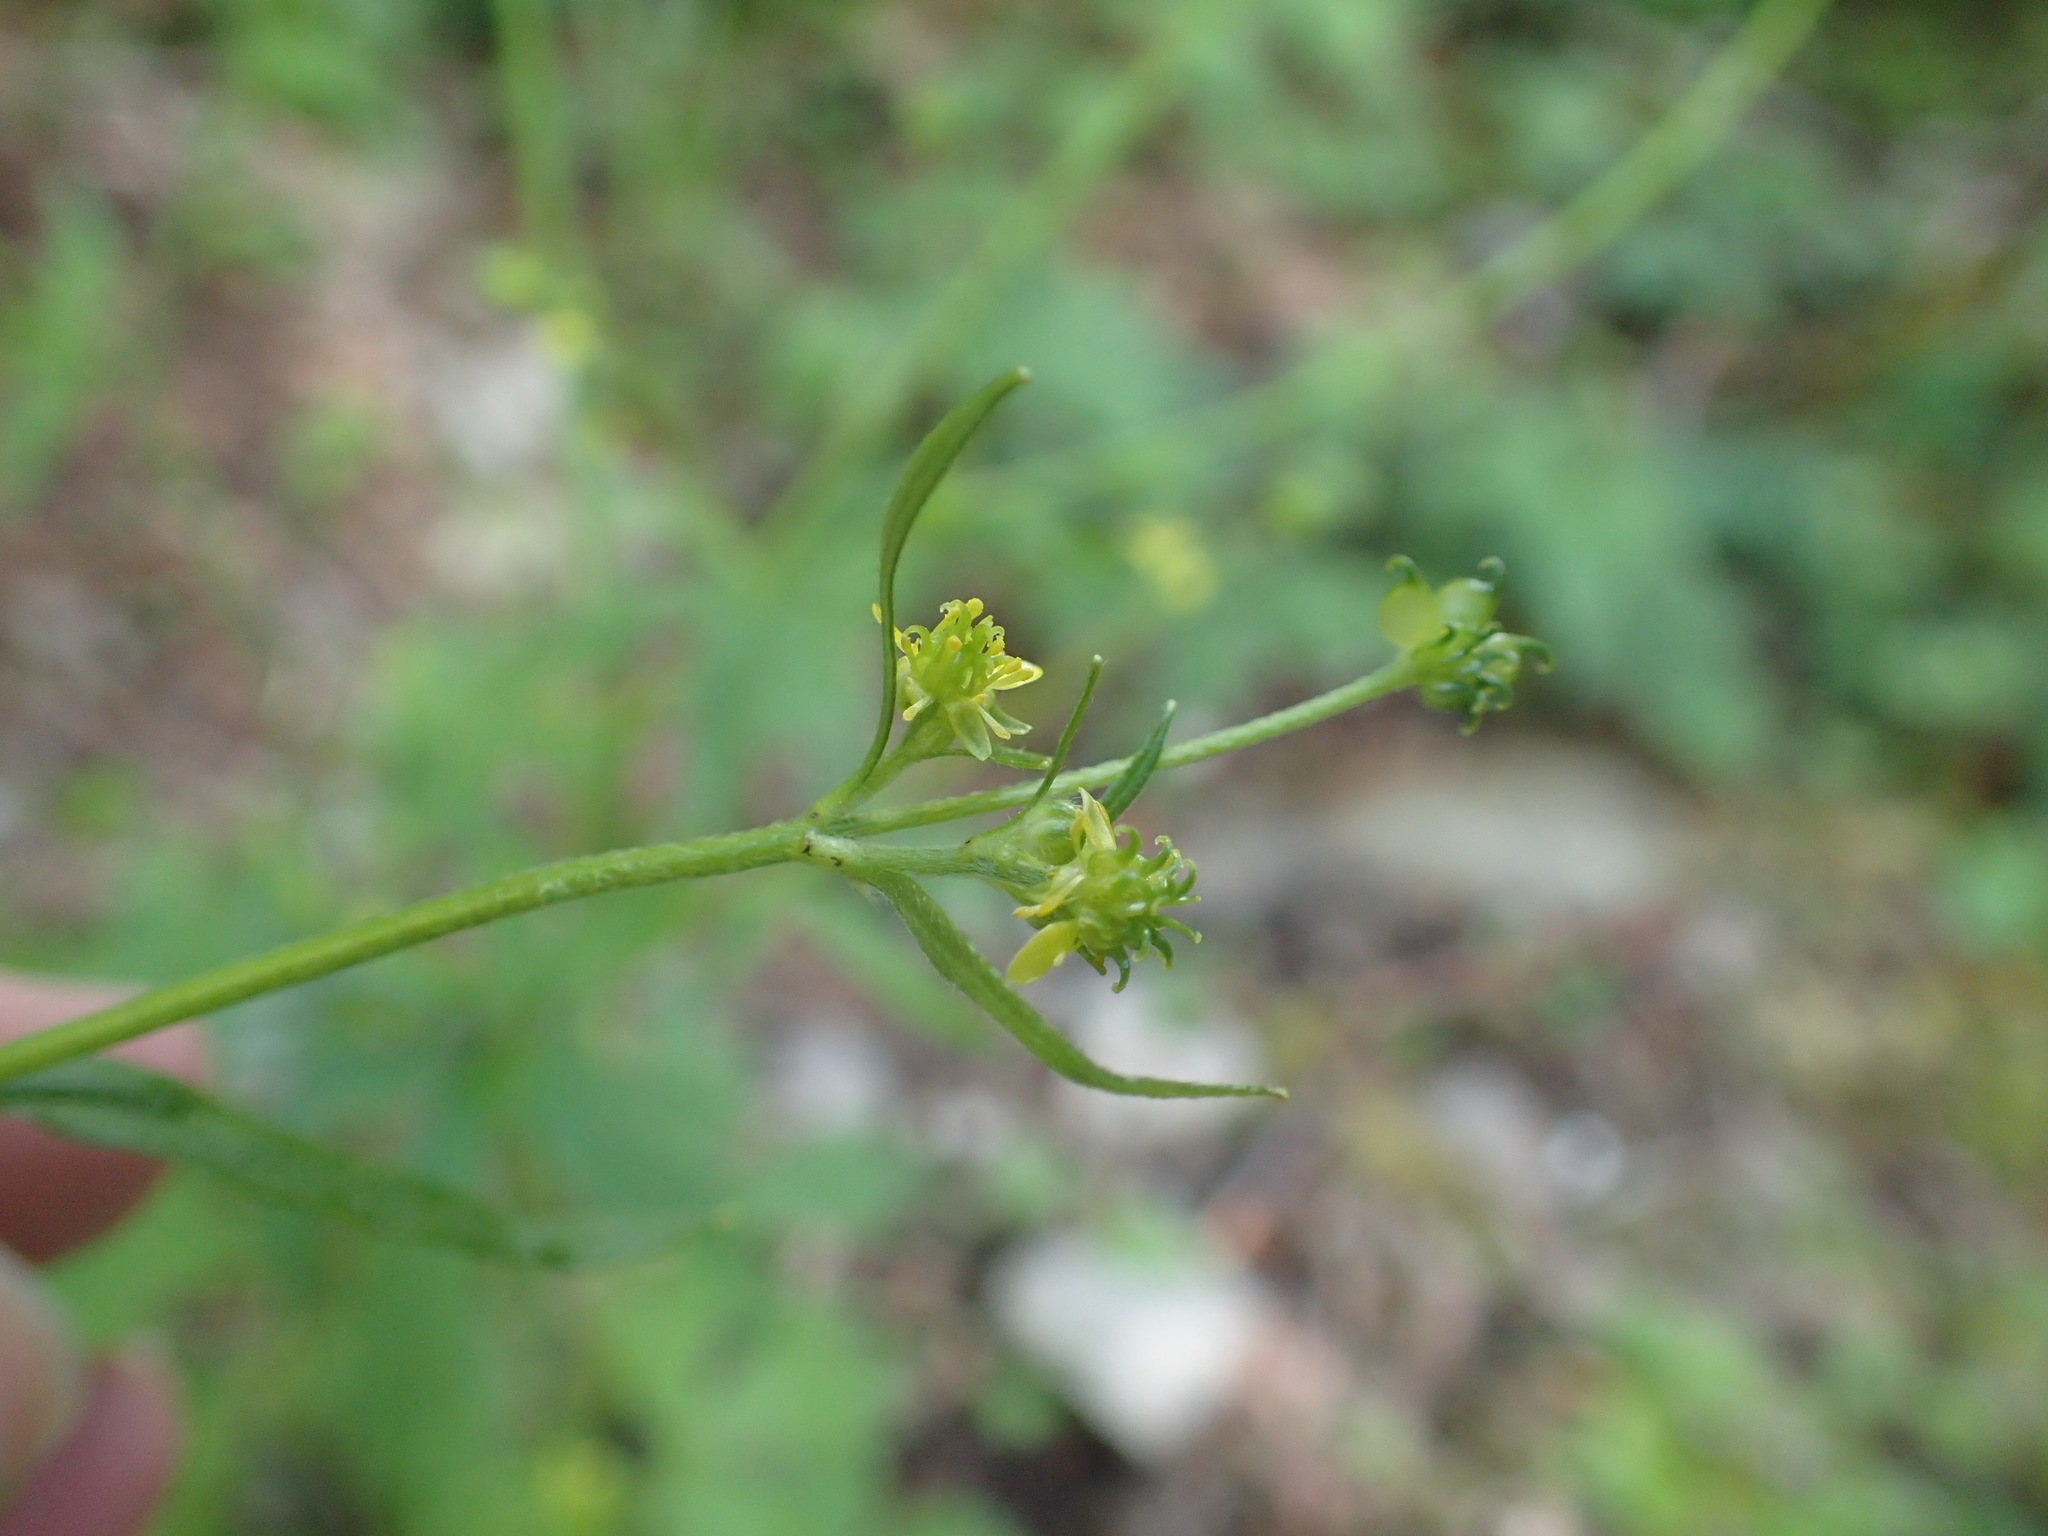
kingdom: Plantae
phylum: Tracheophyta
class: Magnoliopsida
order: Ranunculales
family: Ranunculaceae
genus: Ranunculus
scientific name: Ranunculus uncinatus
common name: Little buttercup
